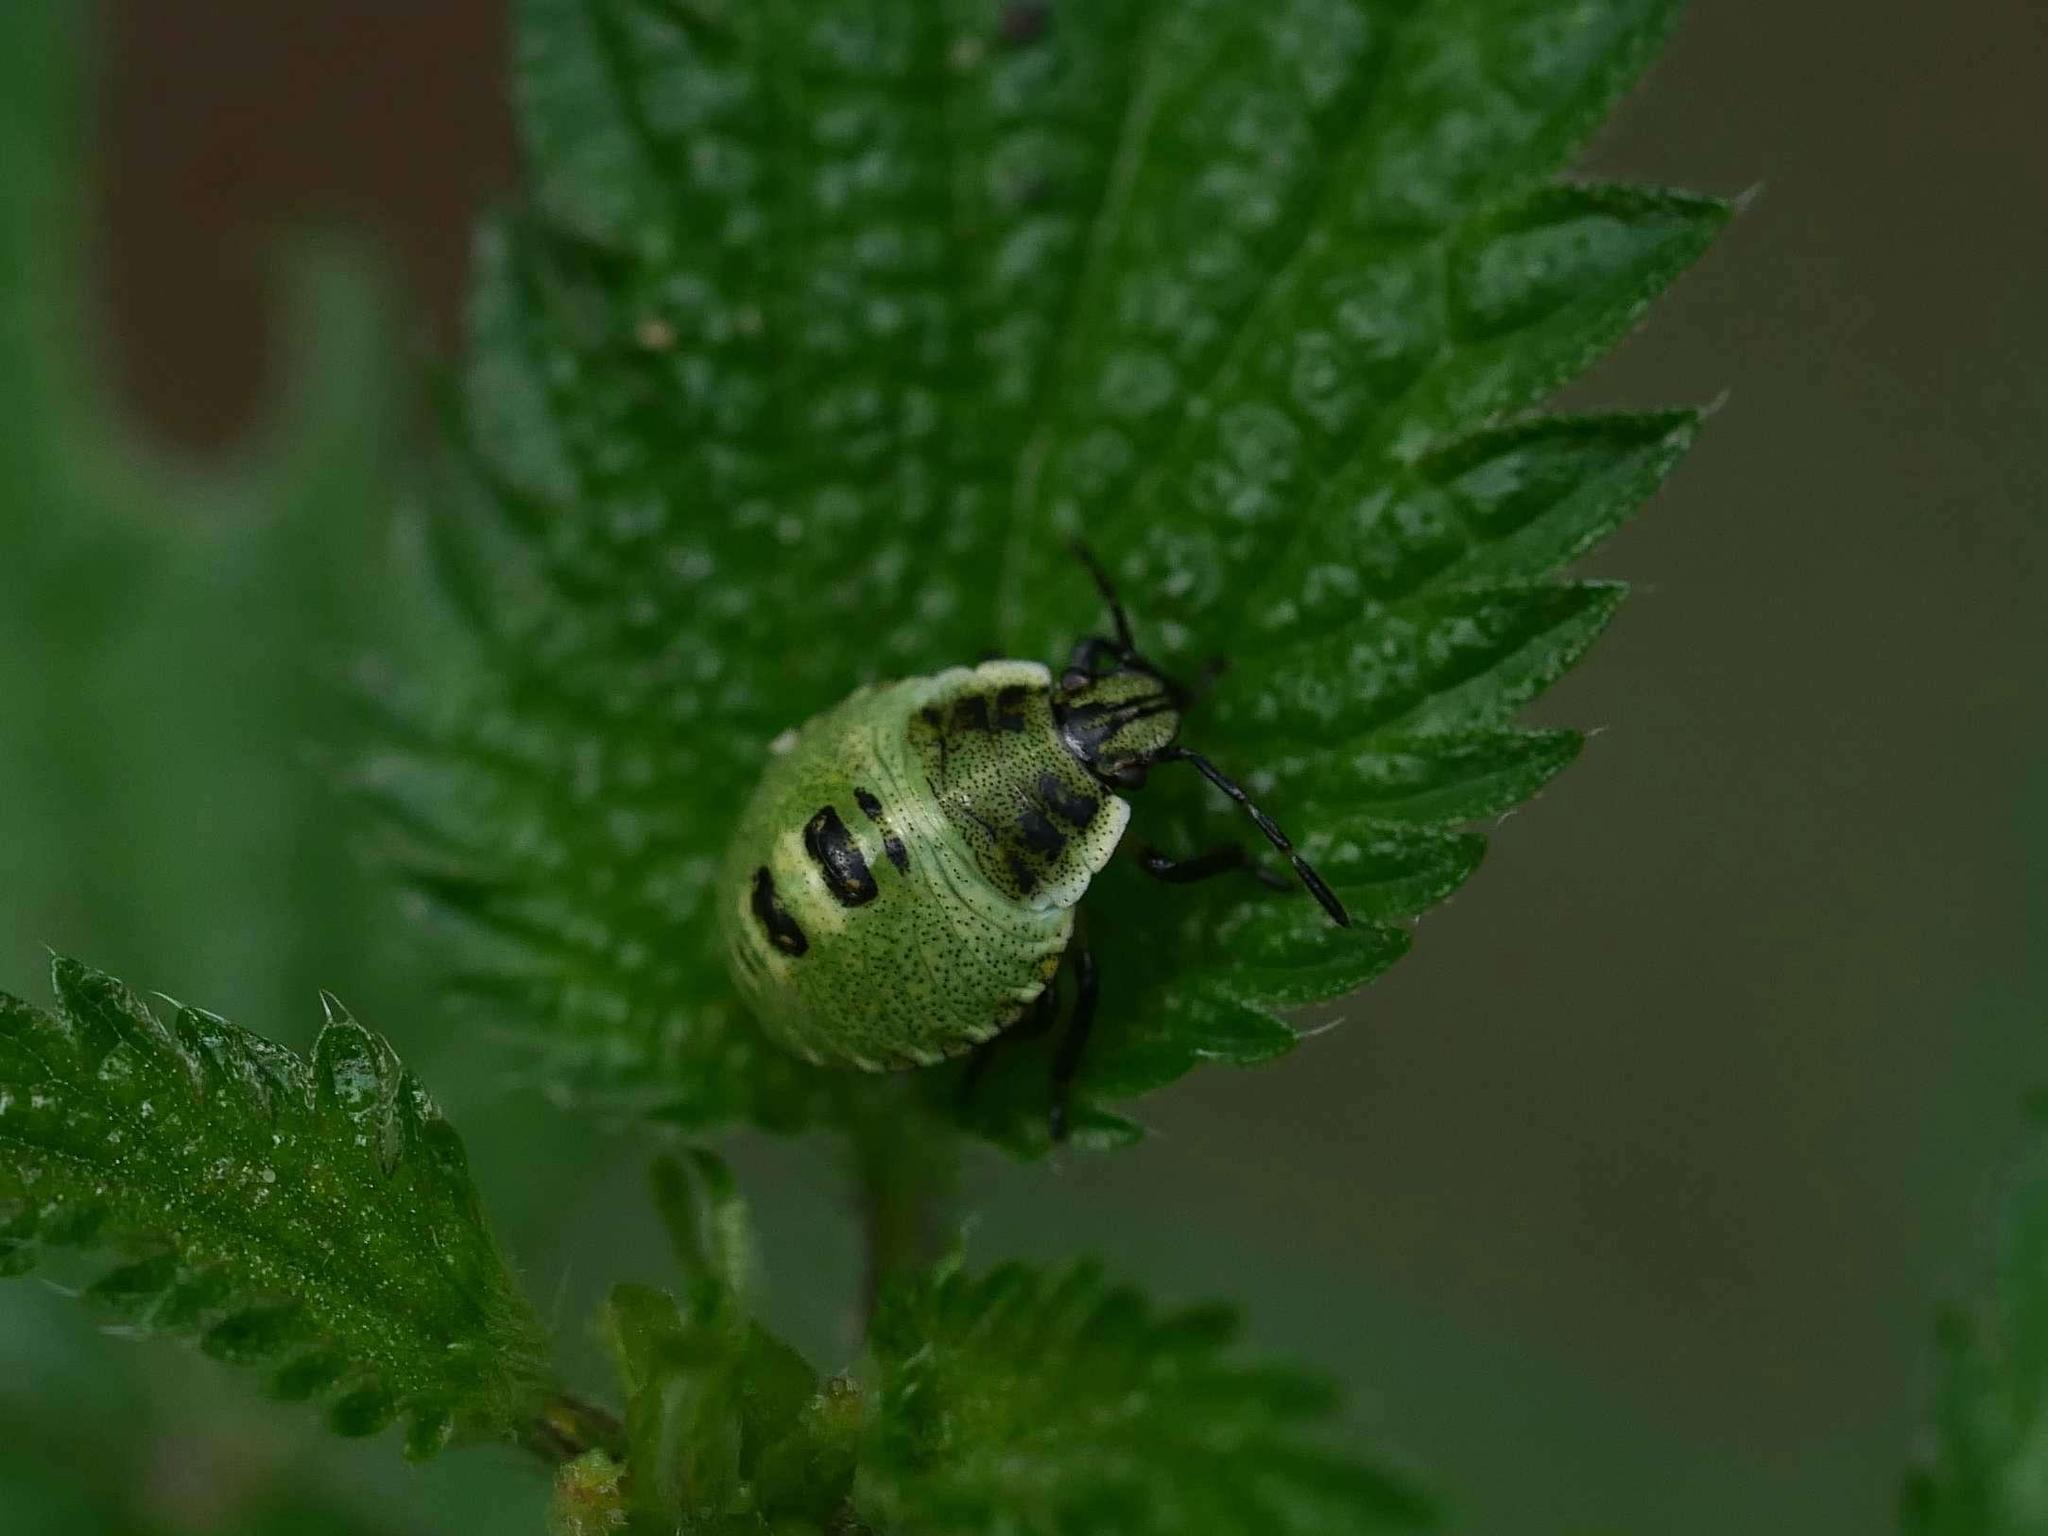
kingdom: Animalia
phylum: Arthropoda
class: Insecta
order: Hemiptera
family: Pentatomidae
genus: Palomena
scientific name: Palomena prasina
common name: Green shieldbug
